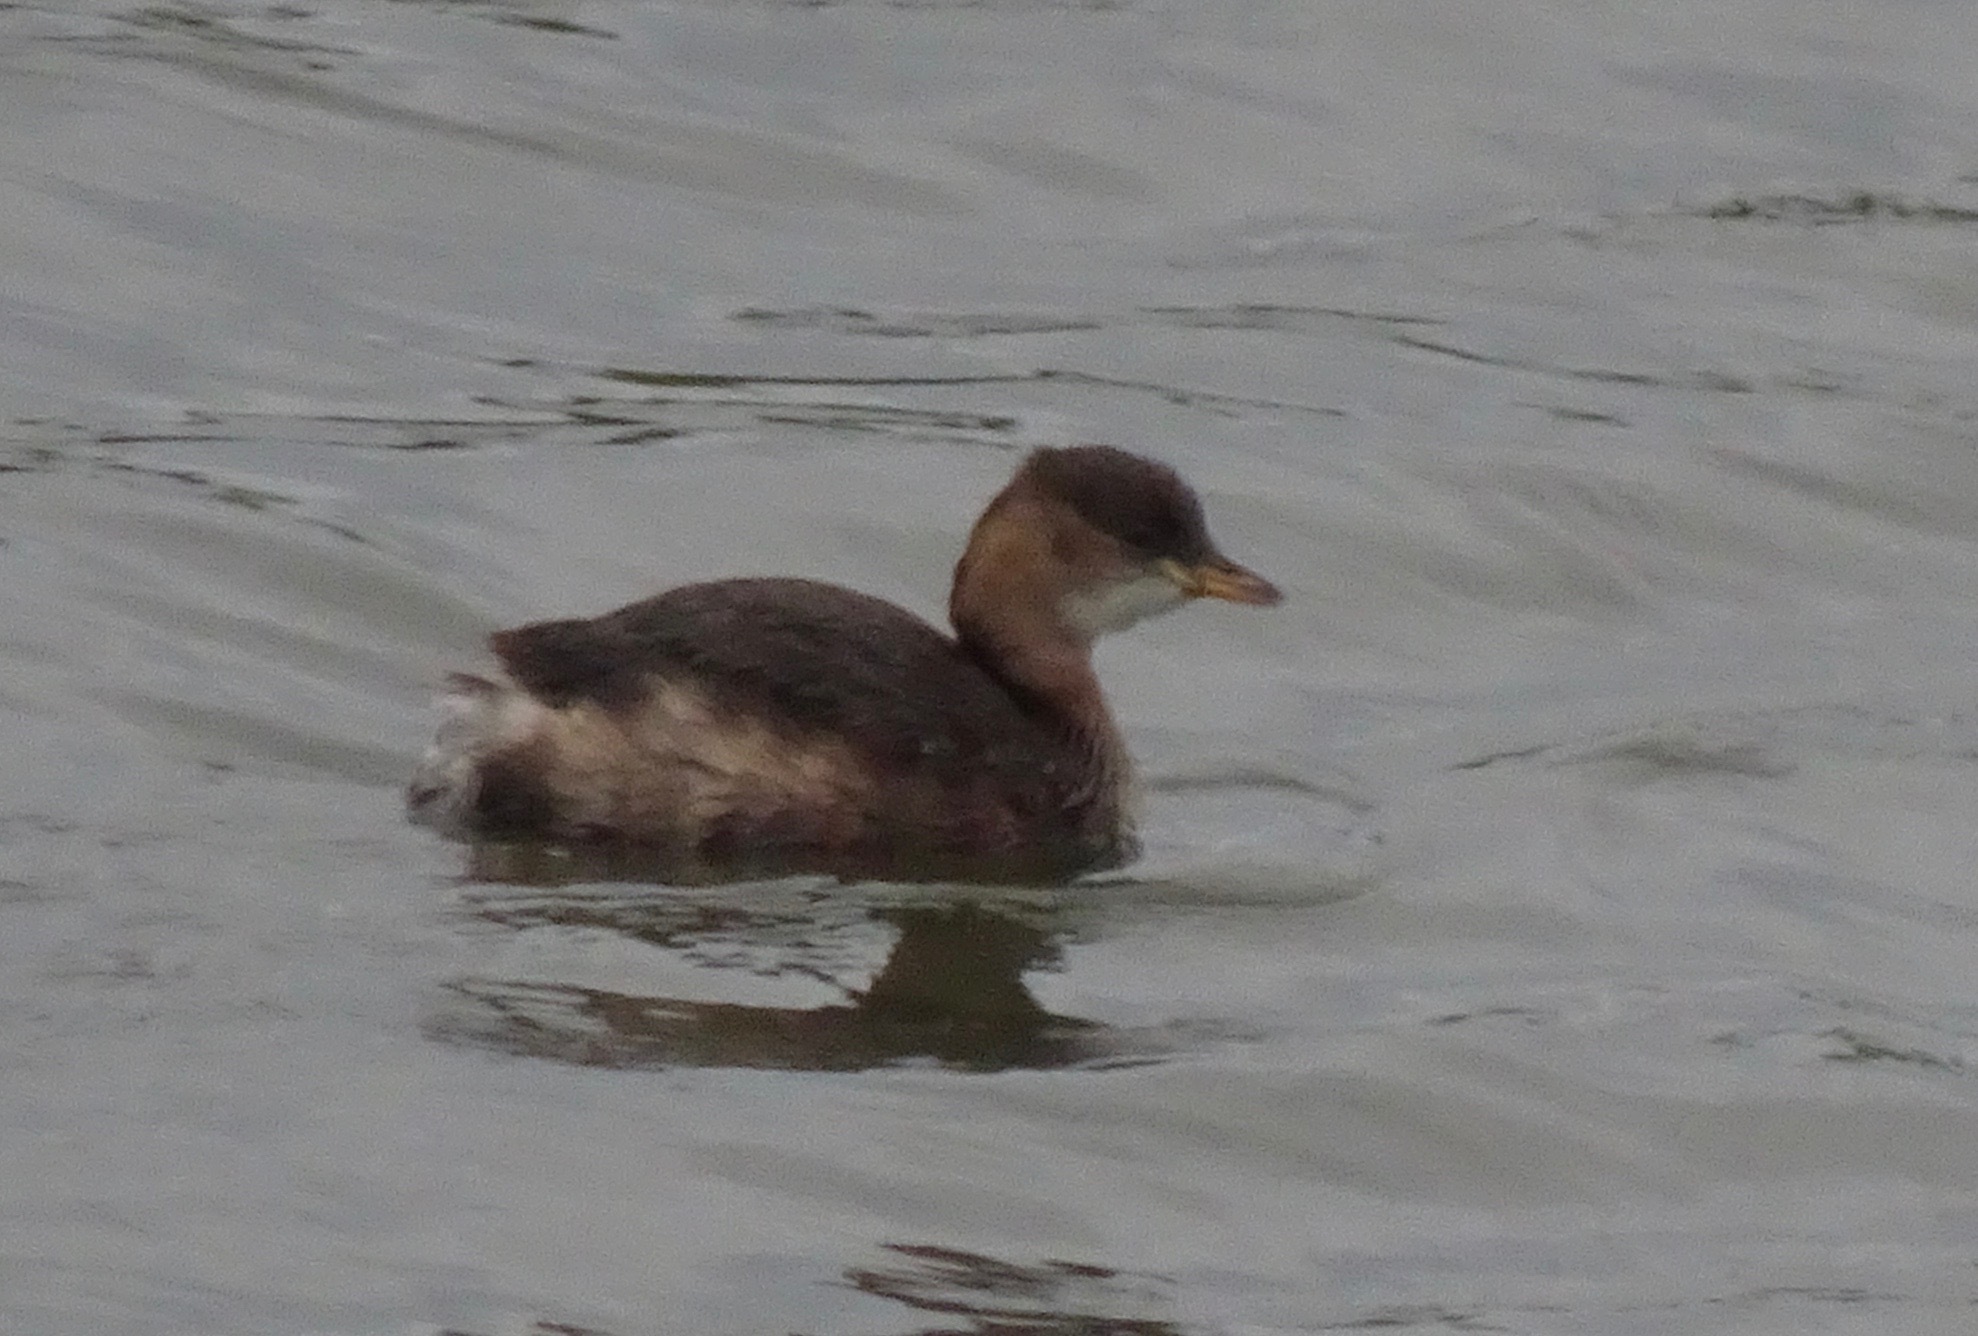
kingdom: Animalia
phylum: Chordata
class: Aves
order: Podicipediformes
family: Podicipedidae
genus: Tachybaptus
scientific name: Tachybaptus ruficollis
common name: Little grebe
